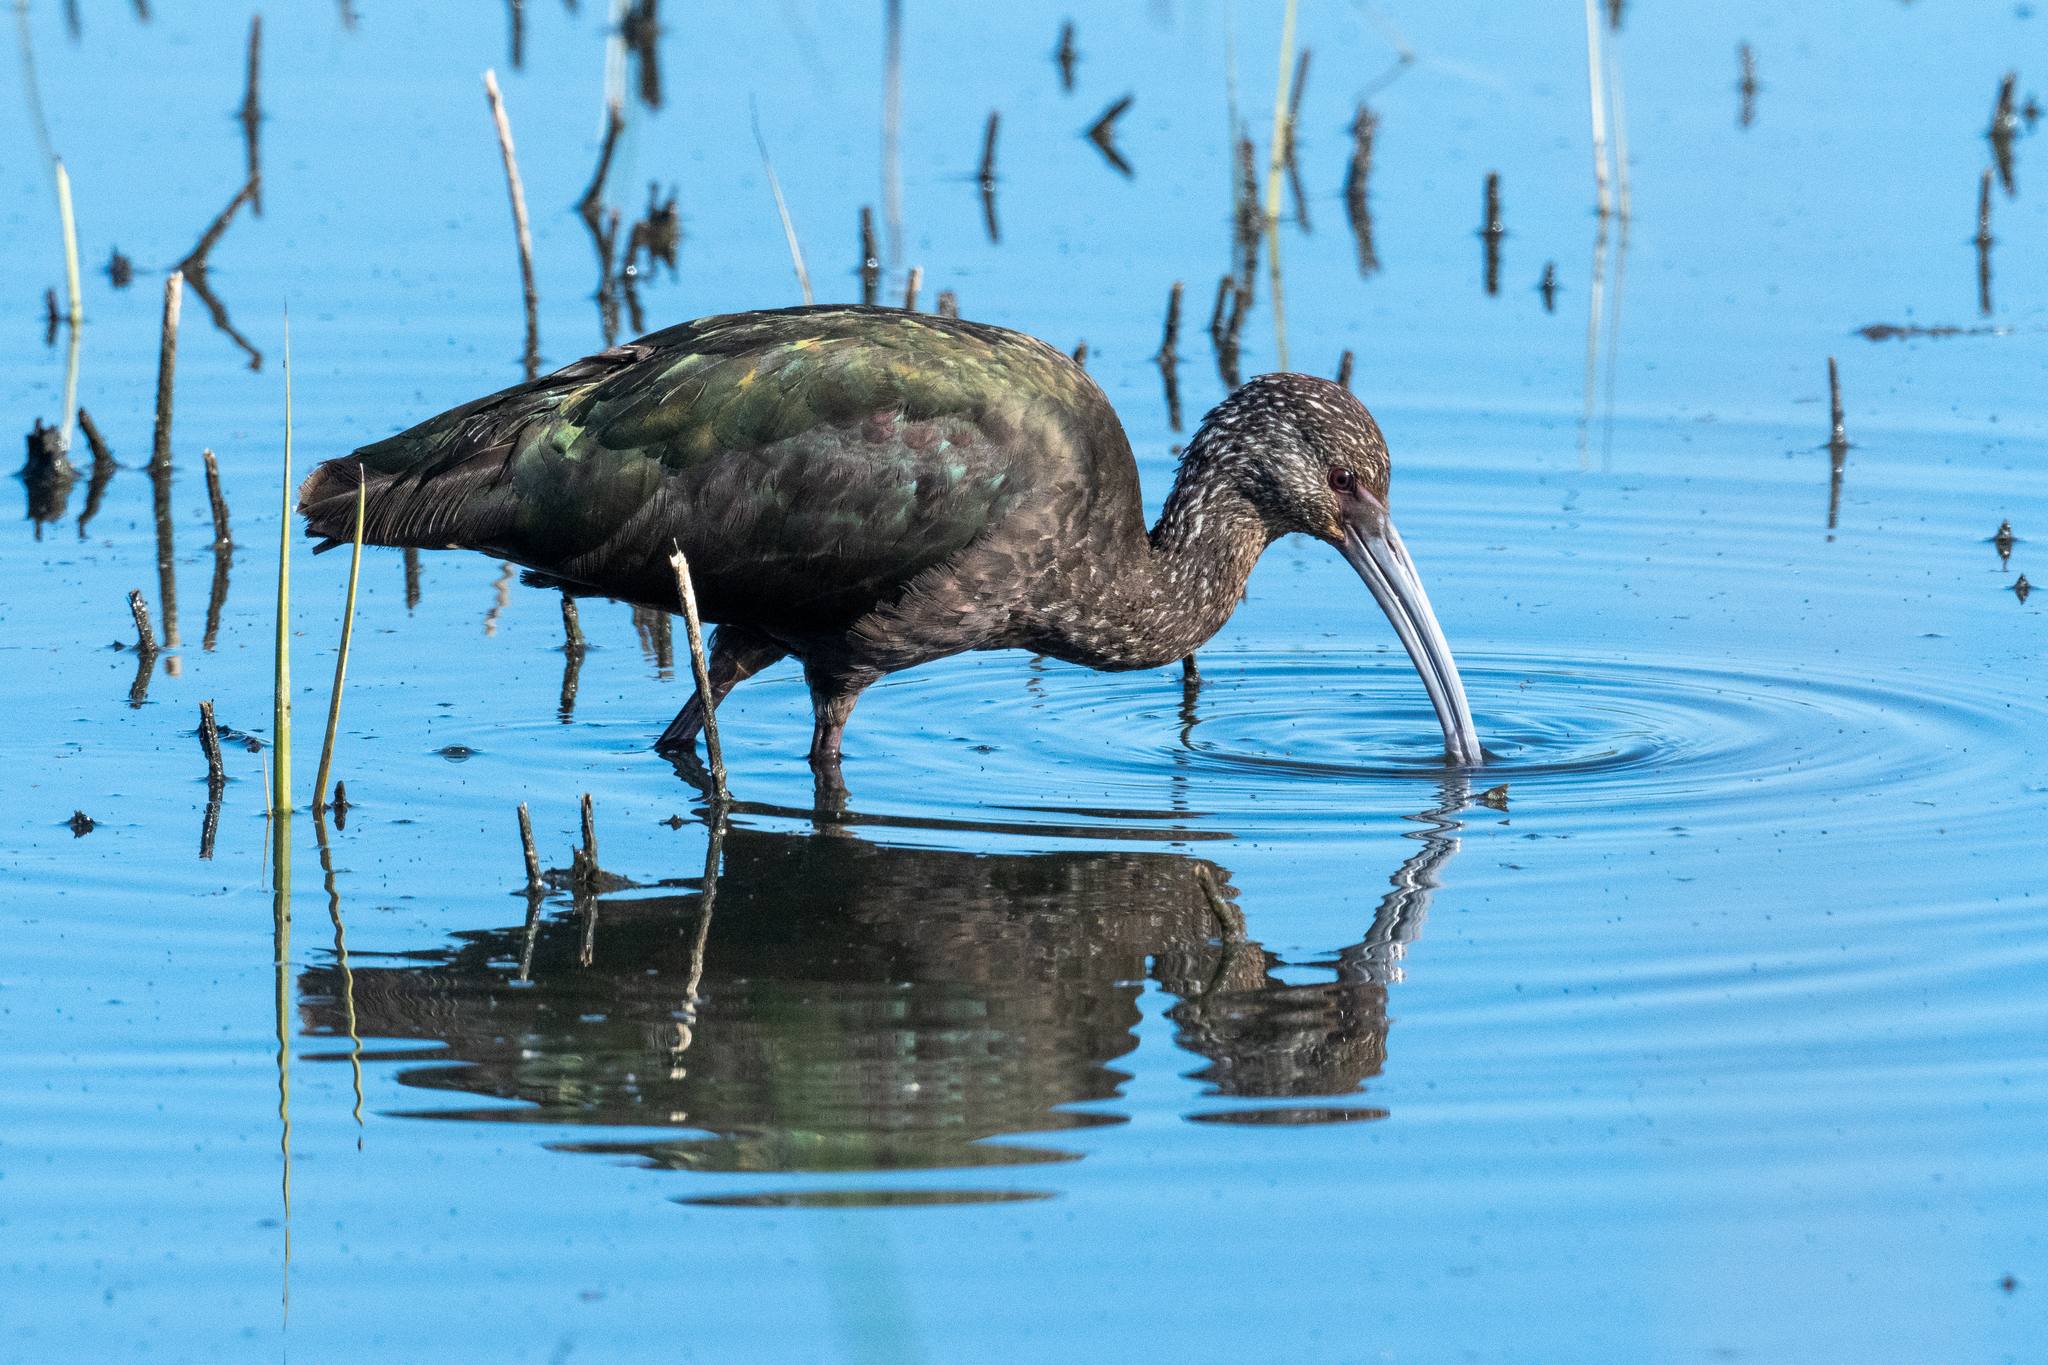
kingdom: Animalia
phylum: Chordata
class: Aves
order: Pelecaniformes
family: Threskiornithidae
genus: Plegadis
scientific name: Plegadis chihi
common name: White-faced ibis
